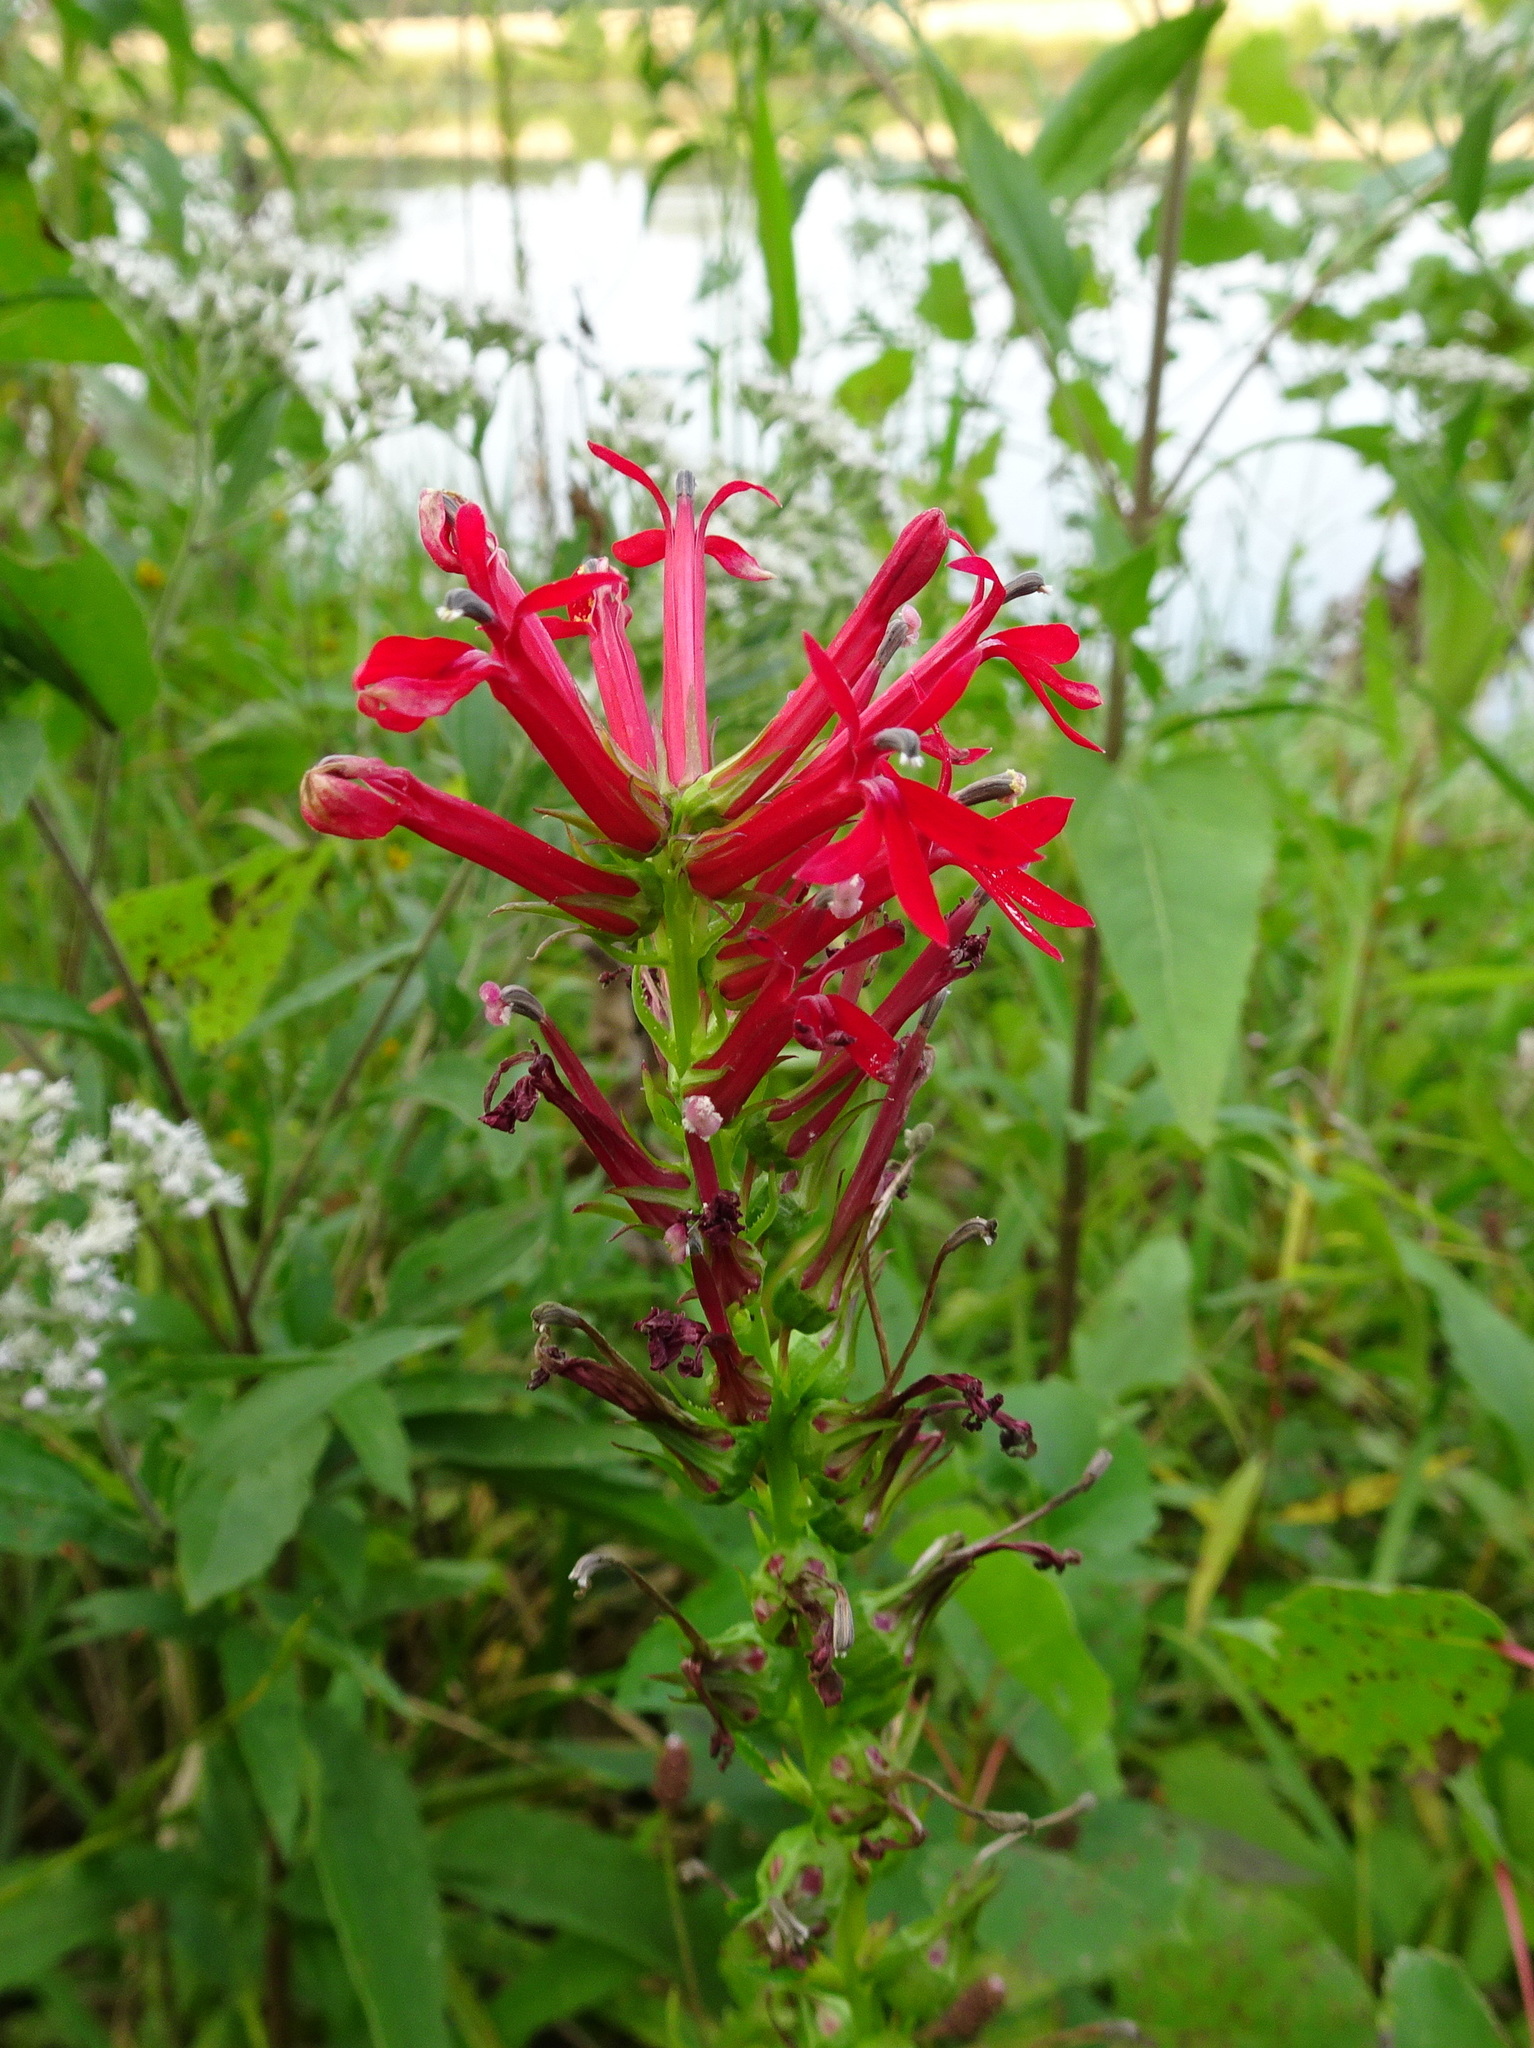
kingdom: Plantae
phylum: Tracheophyta
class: Magnoliopsida
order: Asterales
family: Campanulaceae
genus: Lobelia
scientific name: Lobelia cardinalis
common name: Cardinal flower
